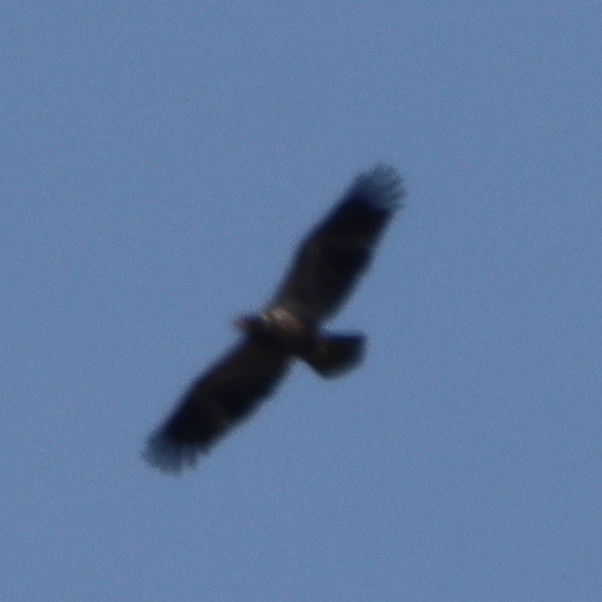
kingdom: Animalia
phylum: Chordata
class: Aves
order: Accipitriformes
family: Accipitridae
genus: Haliaeetus
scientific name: Haliaeetus leucocephalus
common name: Bald eagle
